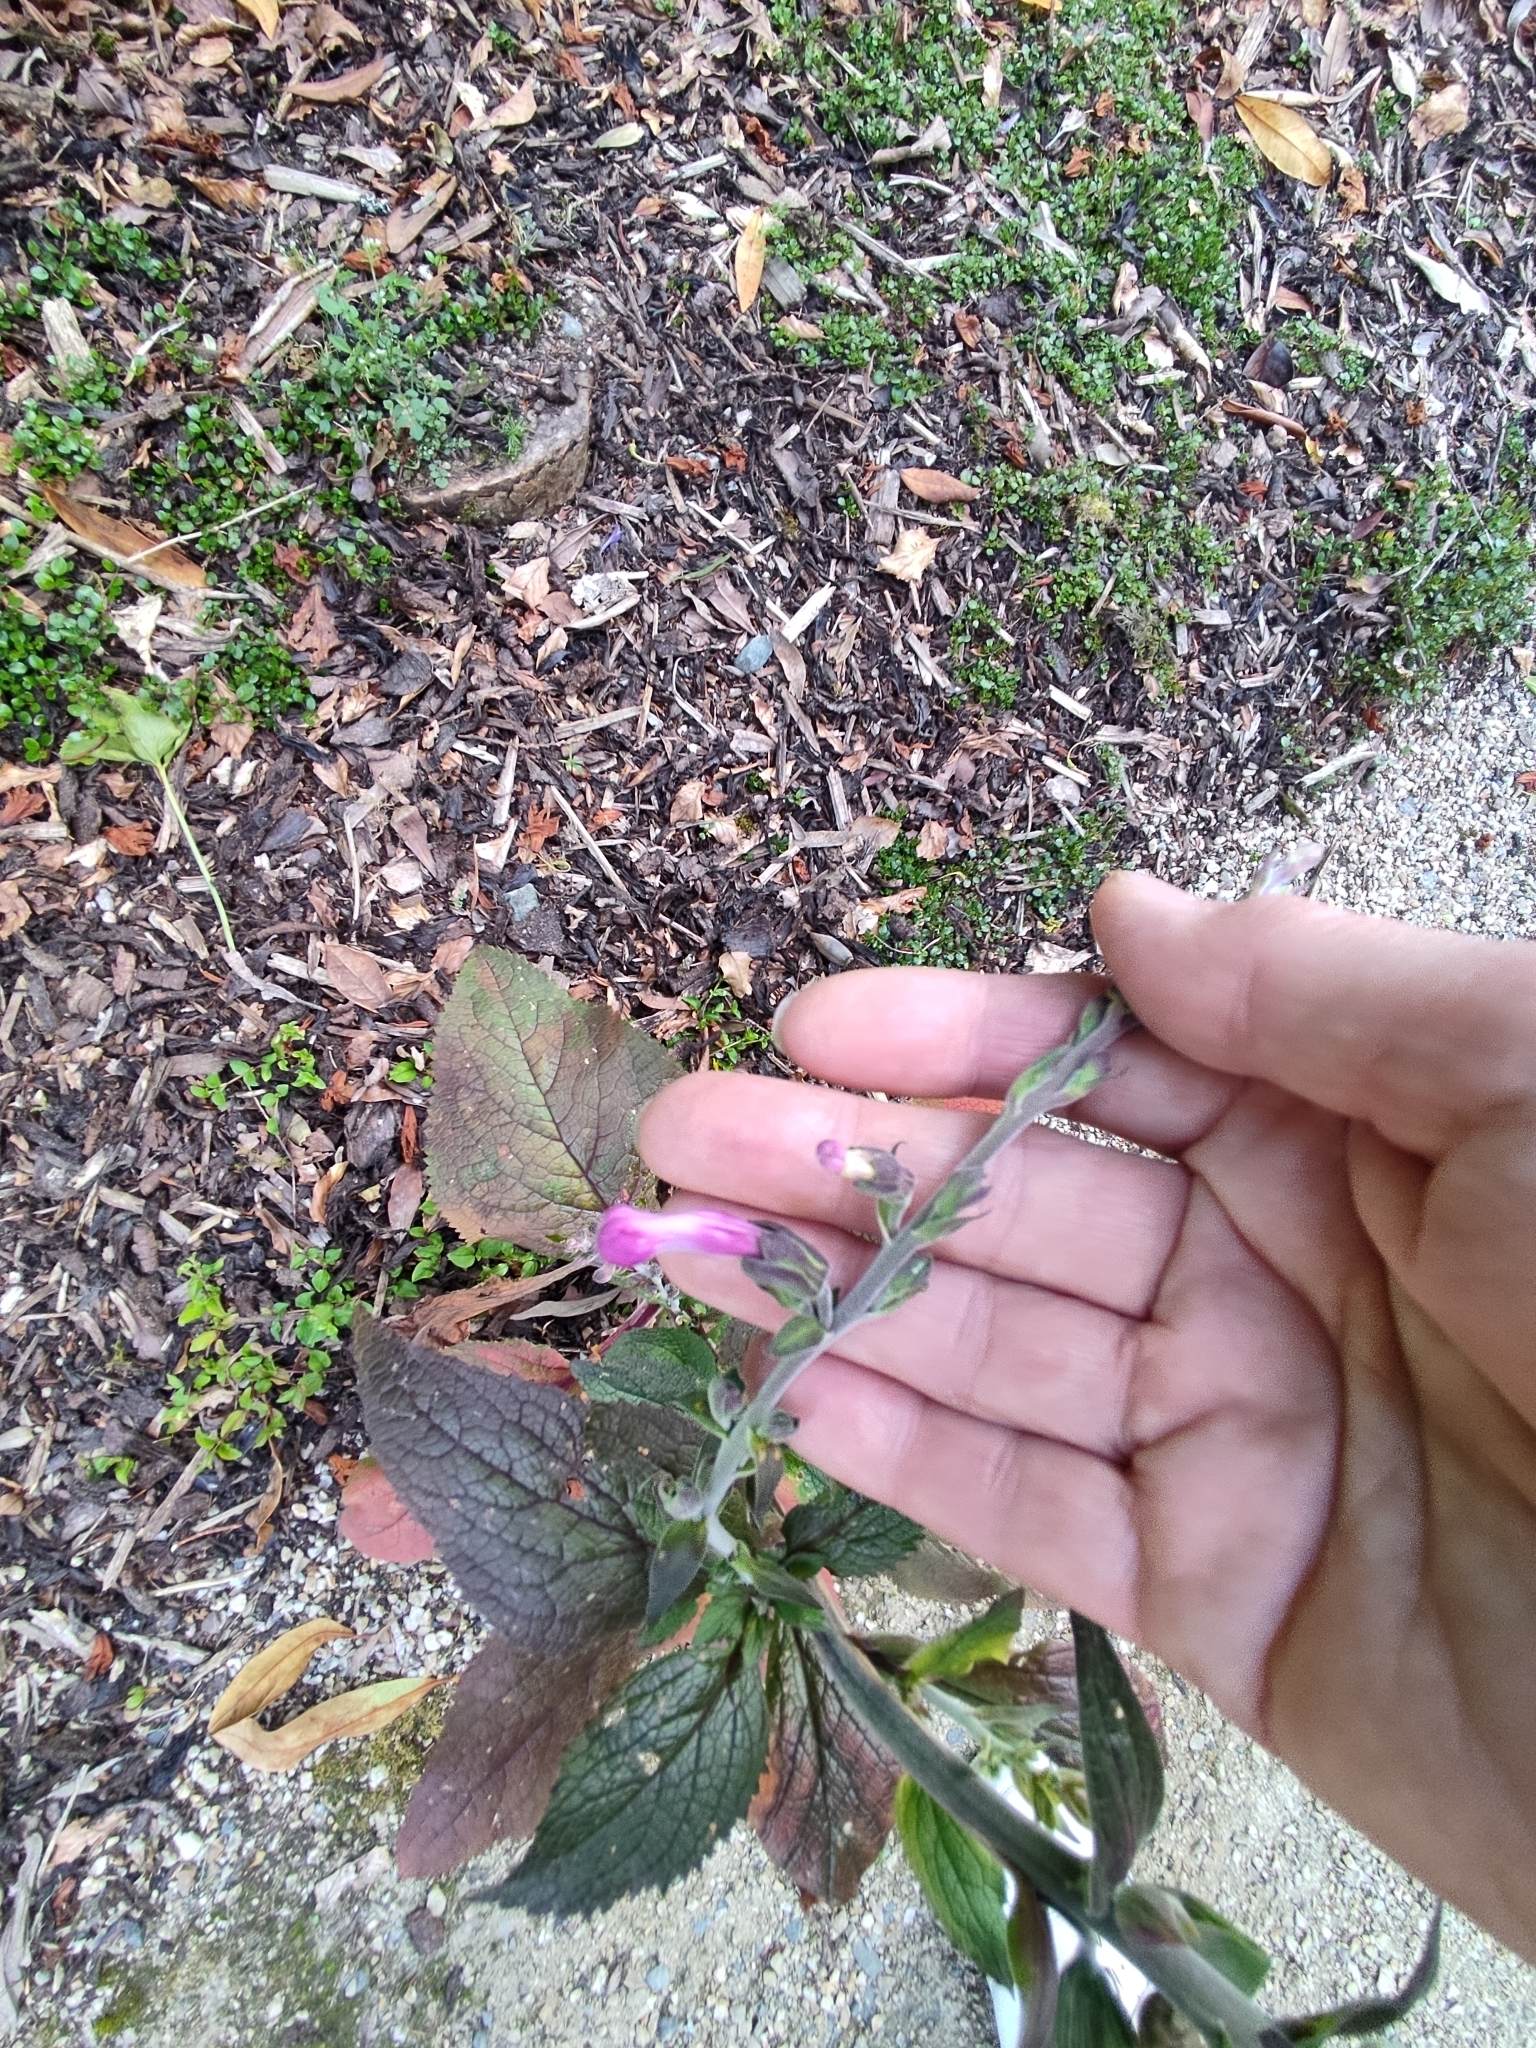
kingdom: Plantae
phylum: Tracheophyta
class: Magnoliopsida
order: Lamiales
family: Plantaginaceae
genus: Digitalis
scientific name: Digitalis purpurea
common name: Foxglove
